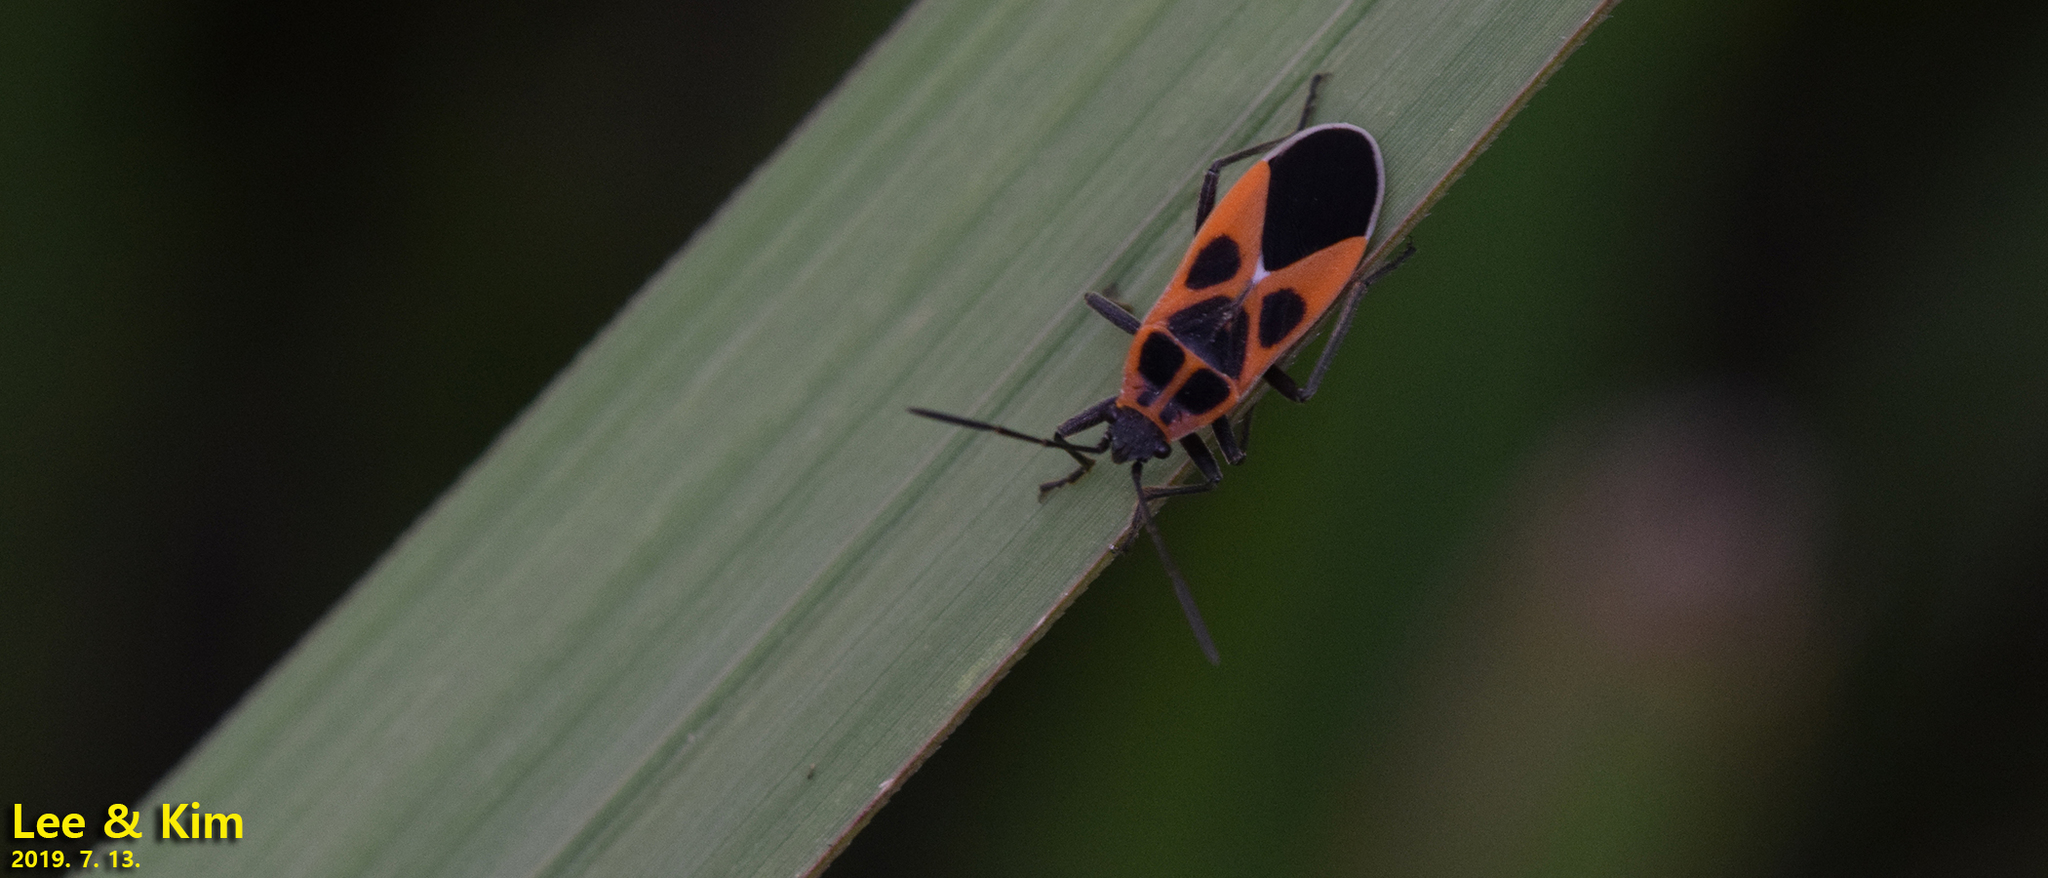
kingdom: Animalia
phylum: Arthropoda
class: Insecta
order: Hemiptera
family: Lygaeidae
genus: Tropidothorax
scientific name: Tropidothorax cruciger
